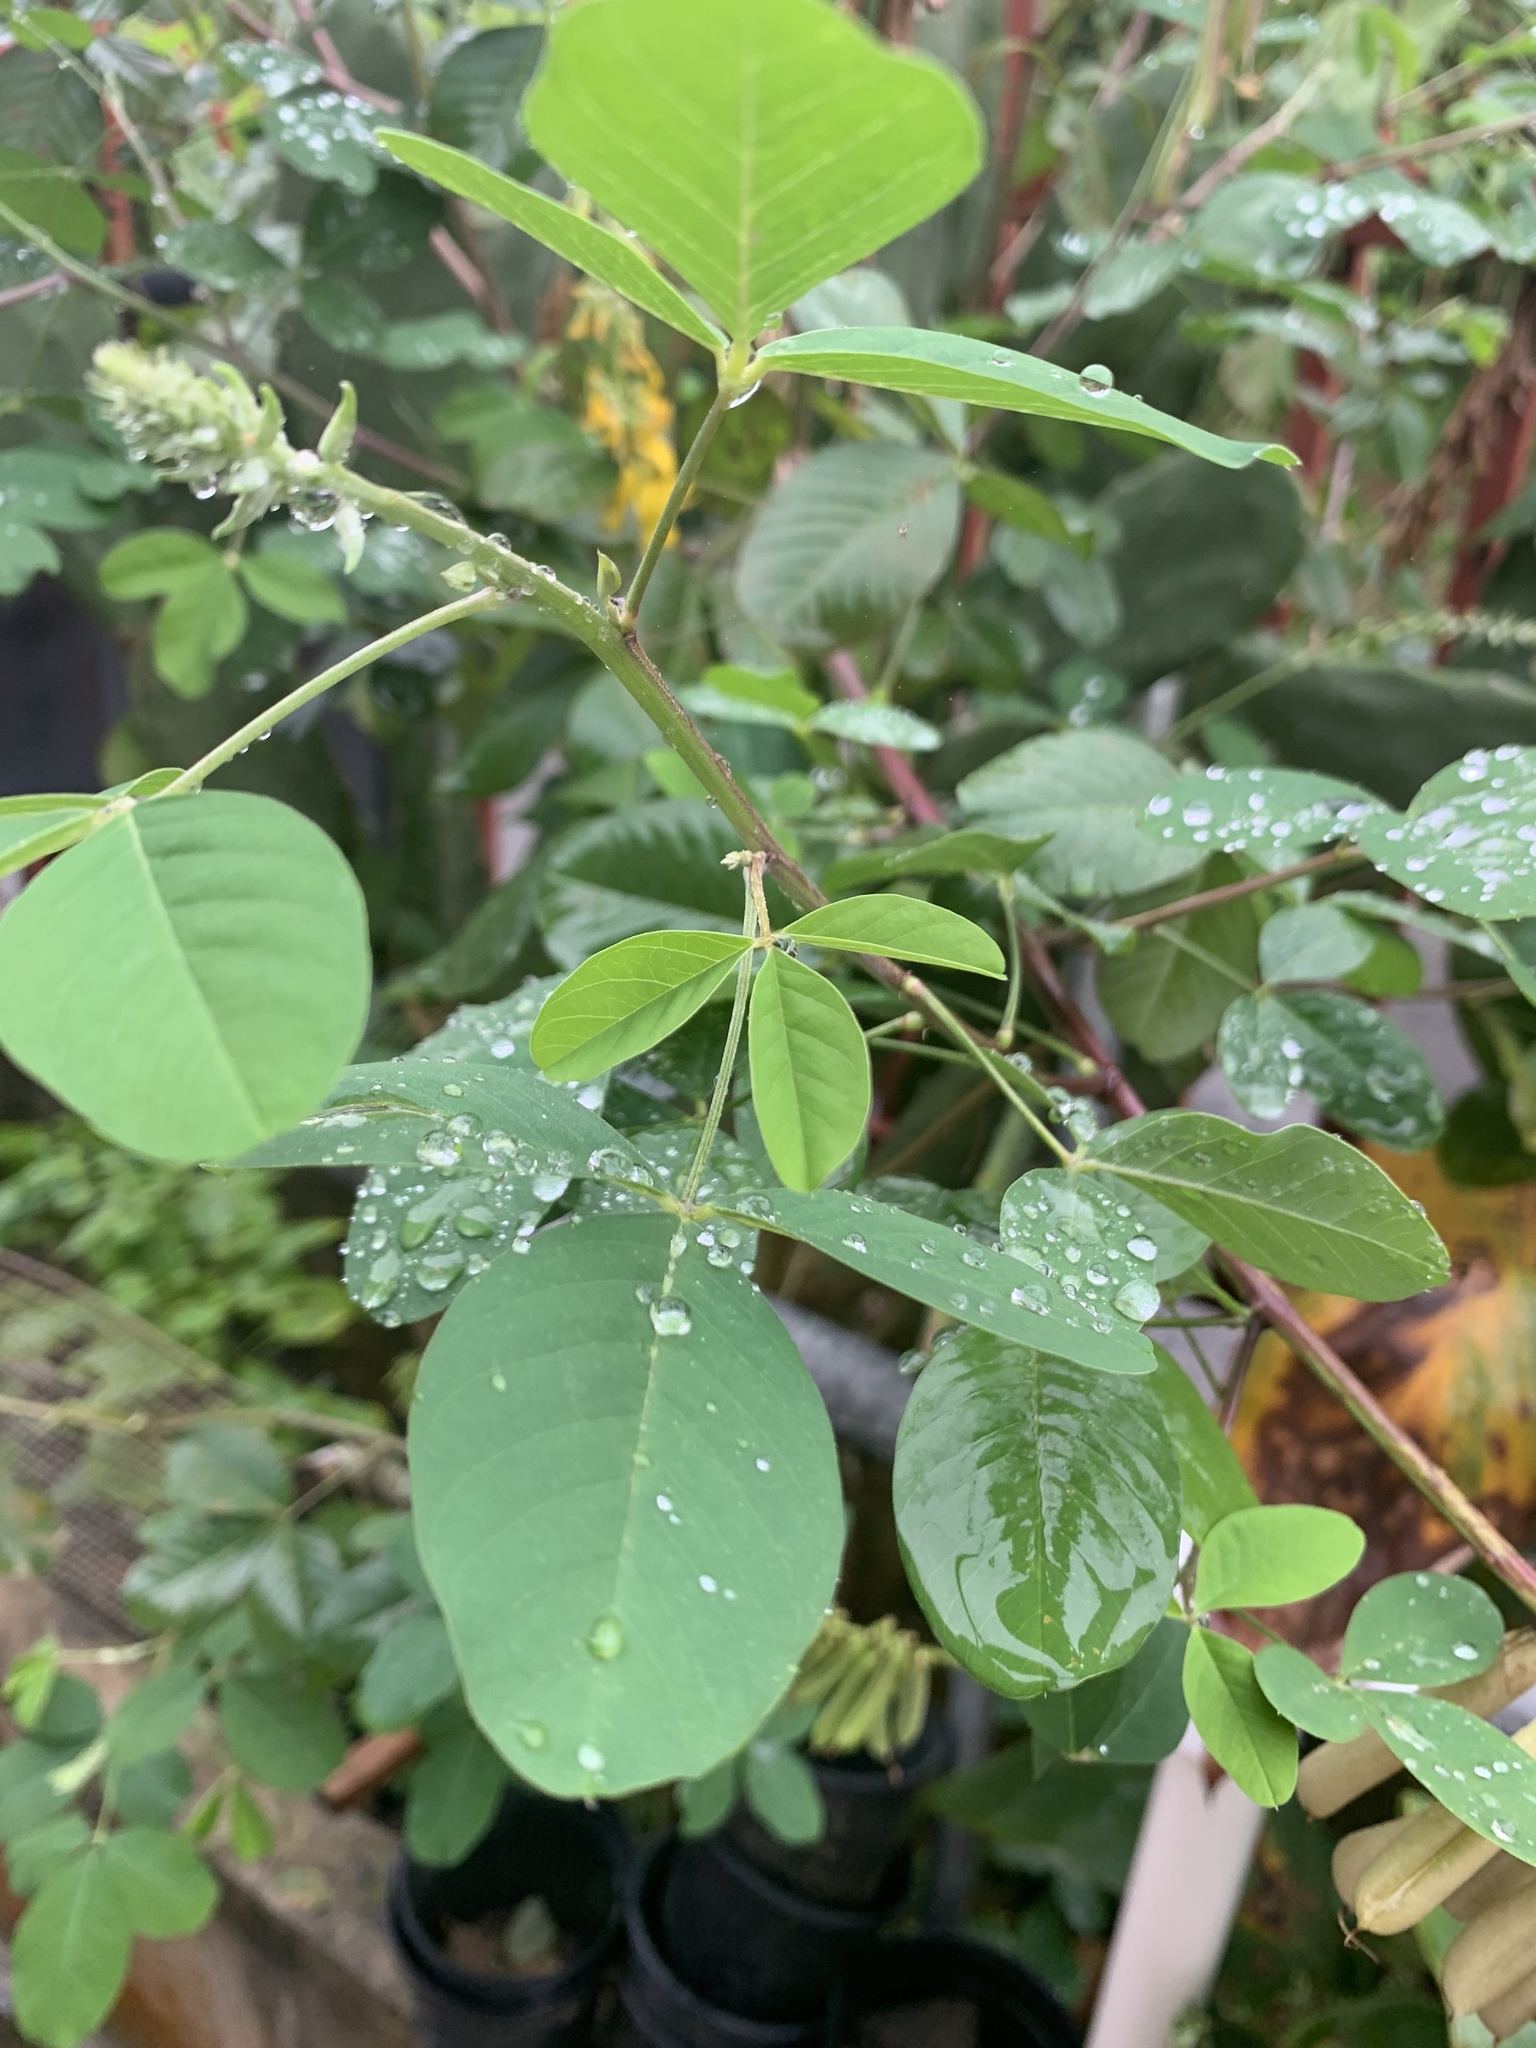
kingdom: Plantae
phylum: Tracheophyta
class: Magnoliopsida
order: Fabales
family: Fabaceae
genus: Crotalaria
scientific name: Crotalaria pallida
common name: Smooth rattlebox
